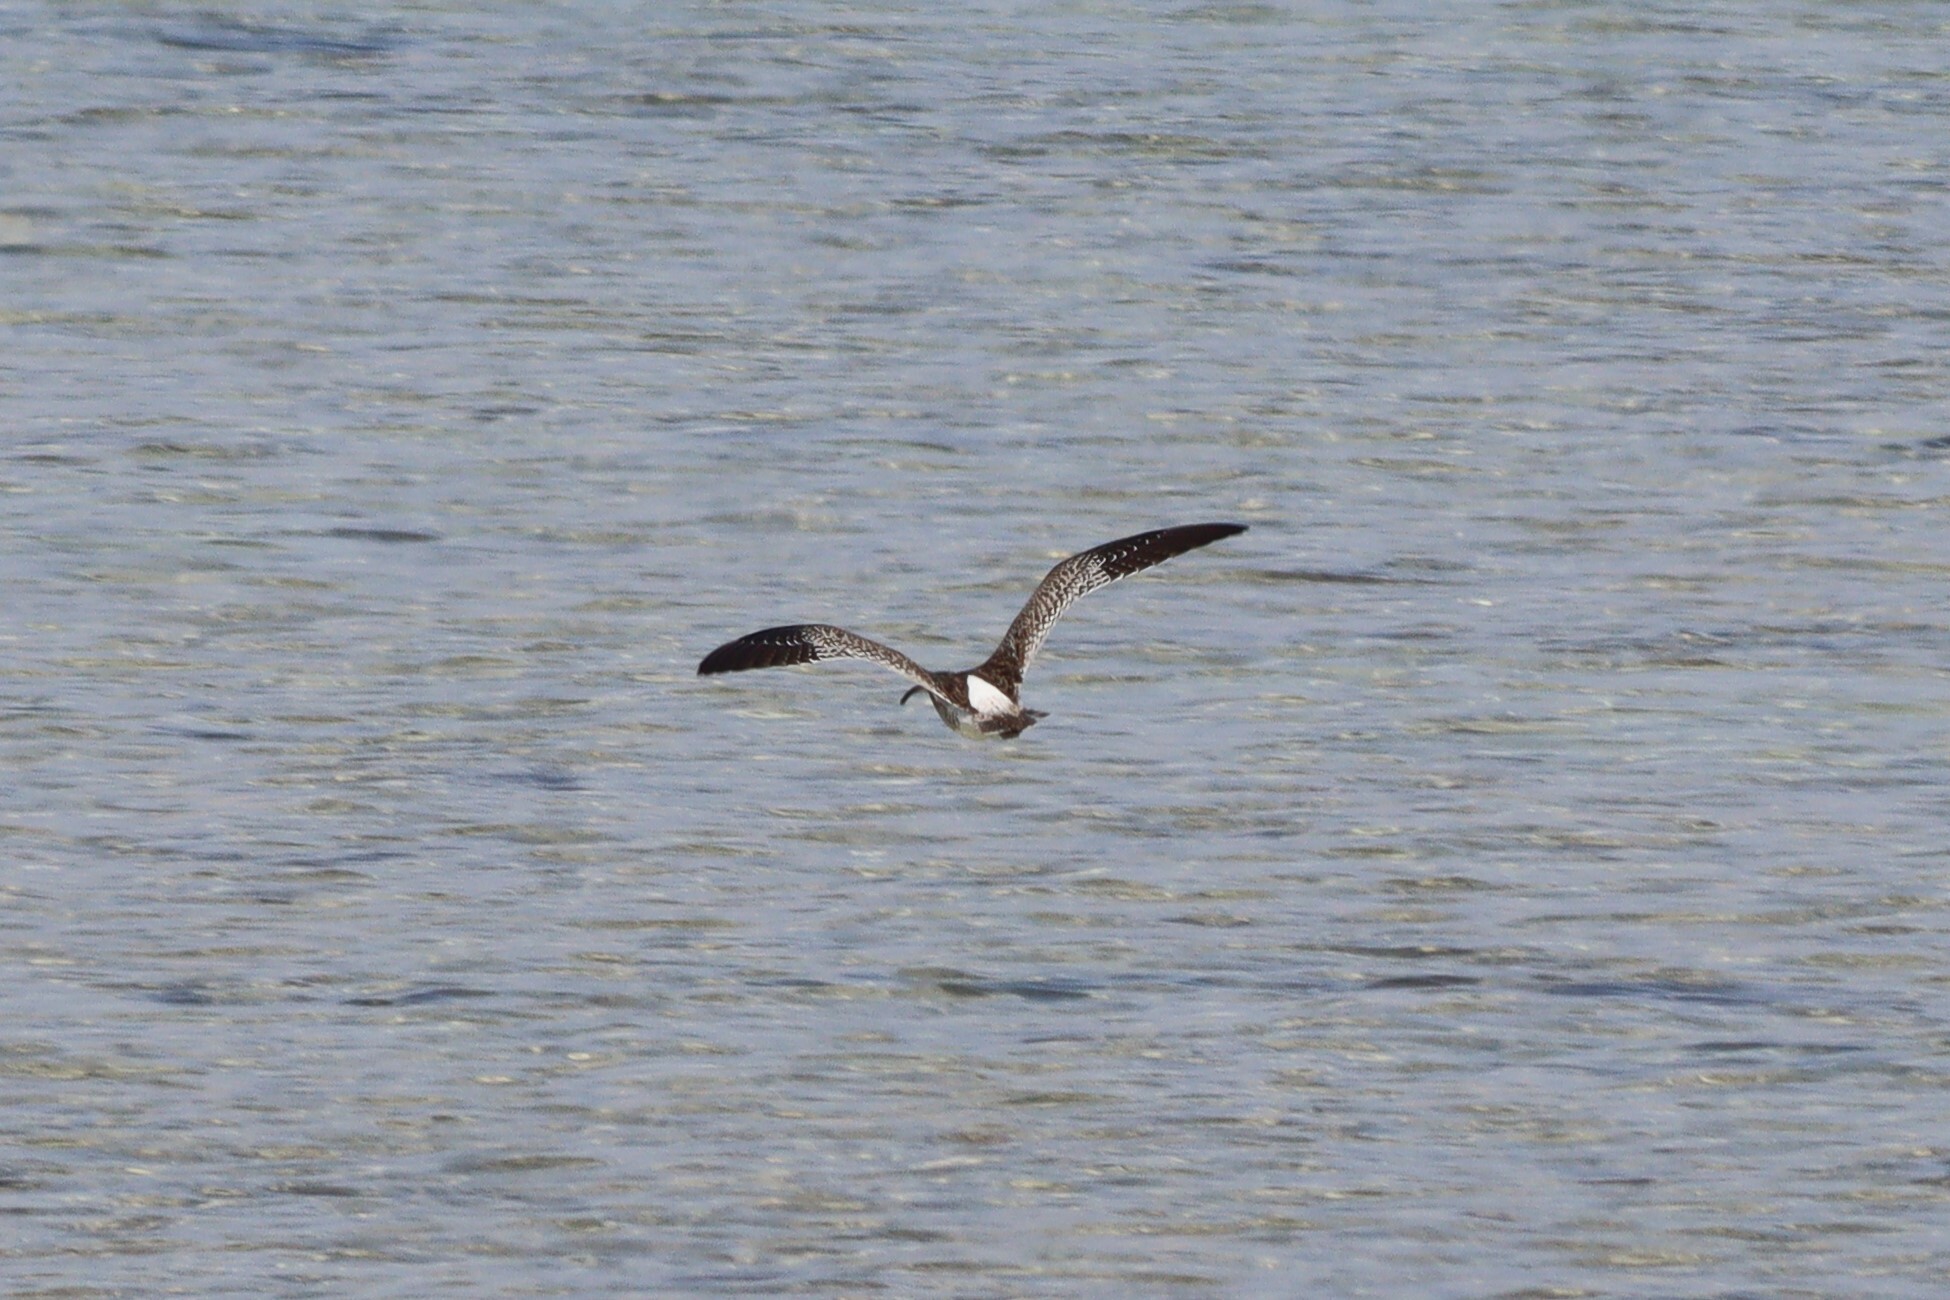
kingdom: Animalia
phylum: Chordata
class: Aves
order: Charadriiformes
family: Scolopacidae
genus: Numenius
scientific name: Numenius phaeopus
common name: Whimbrel
